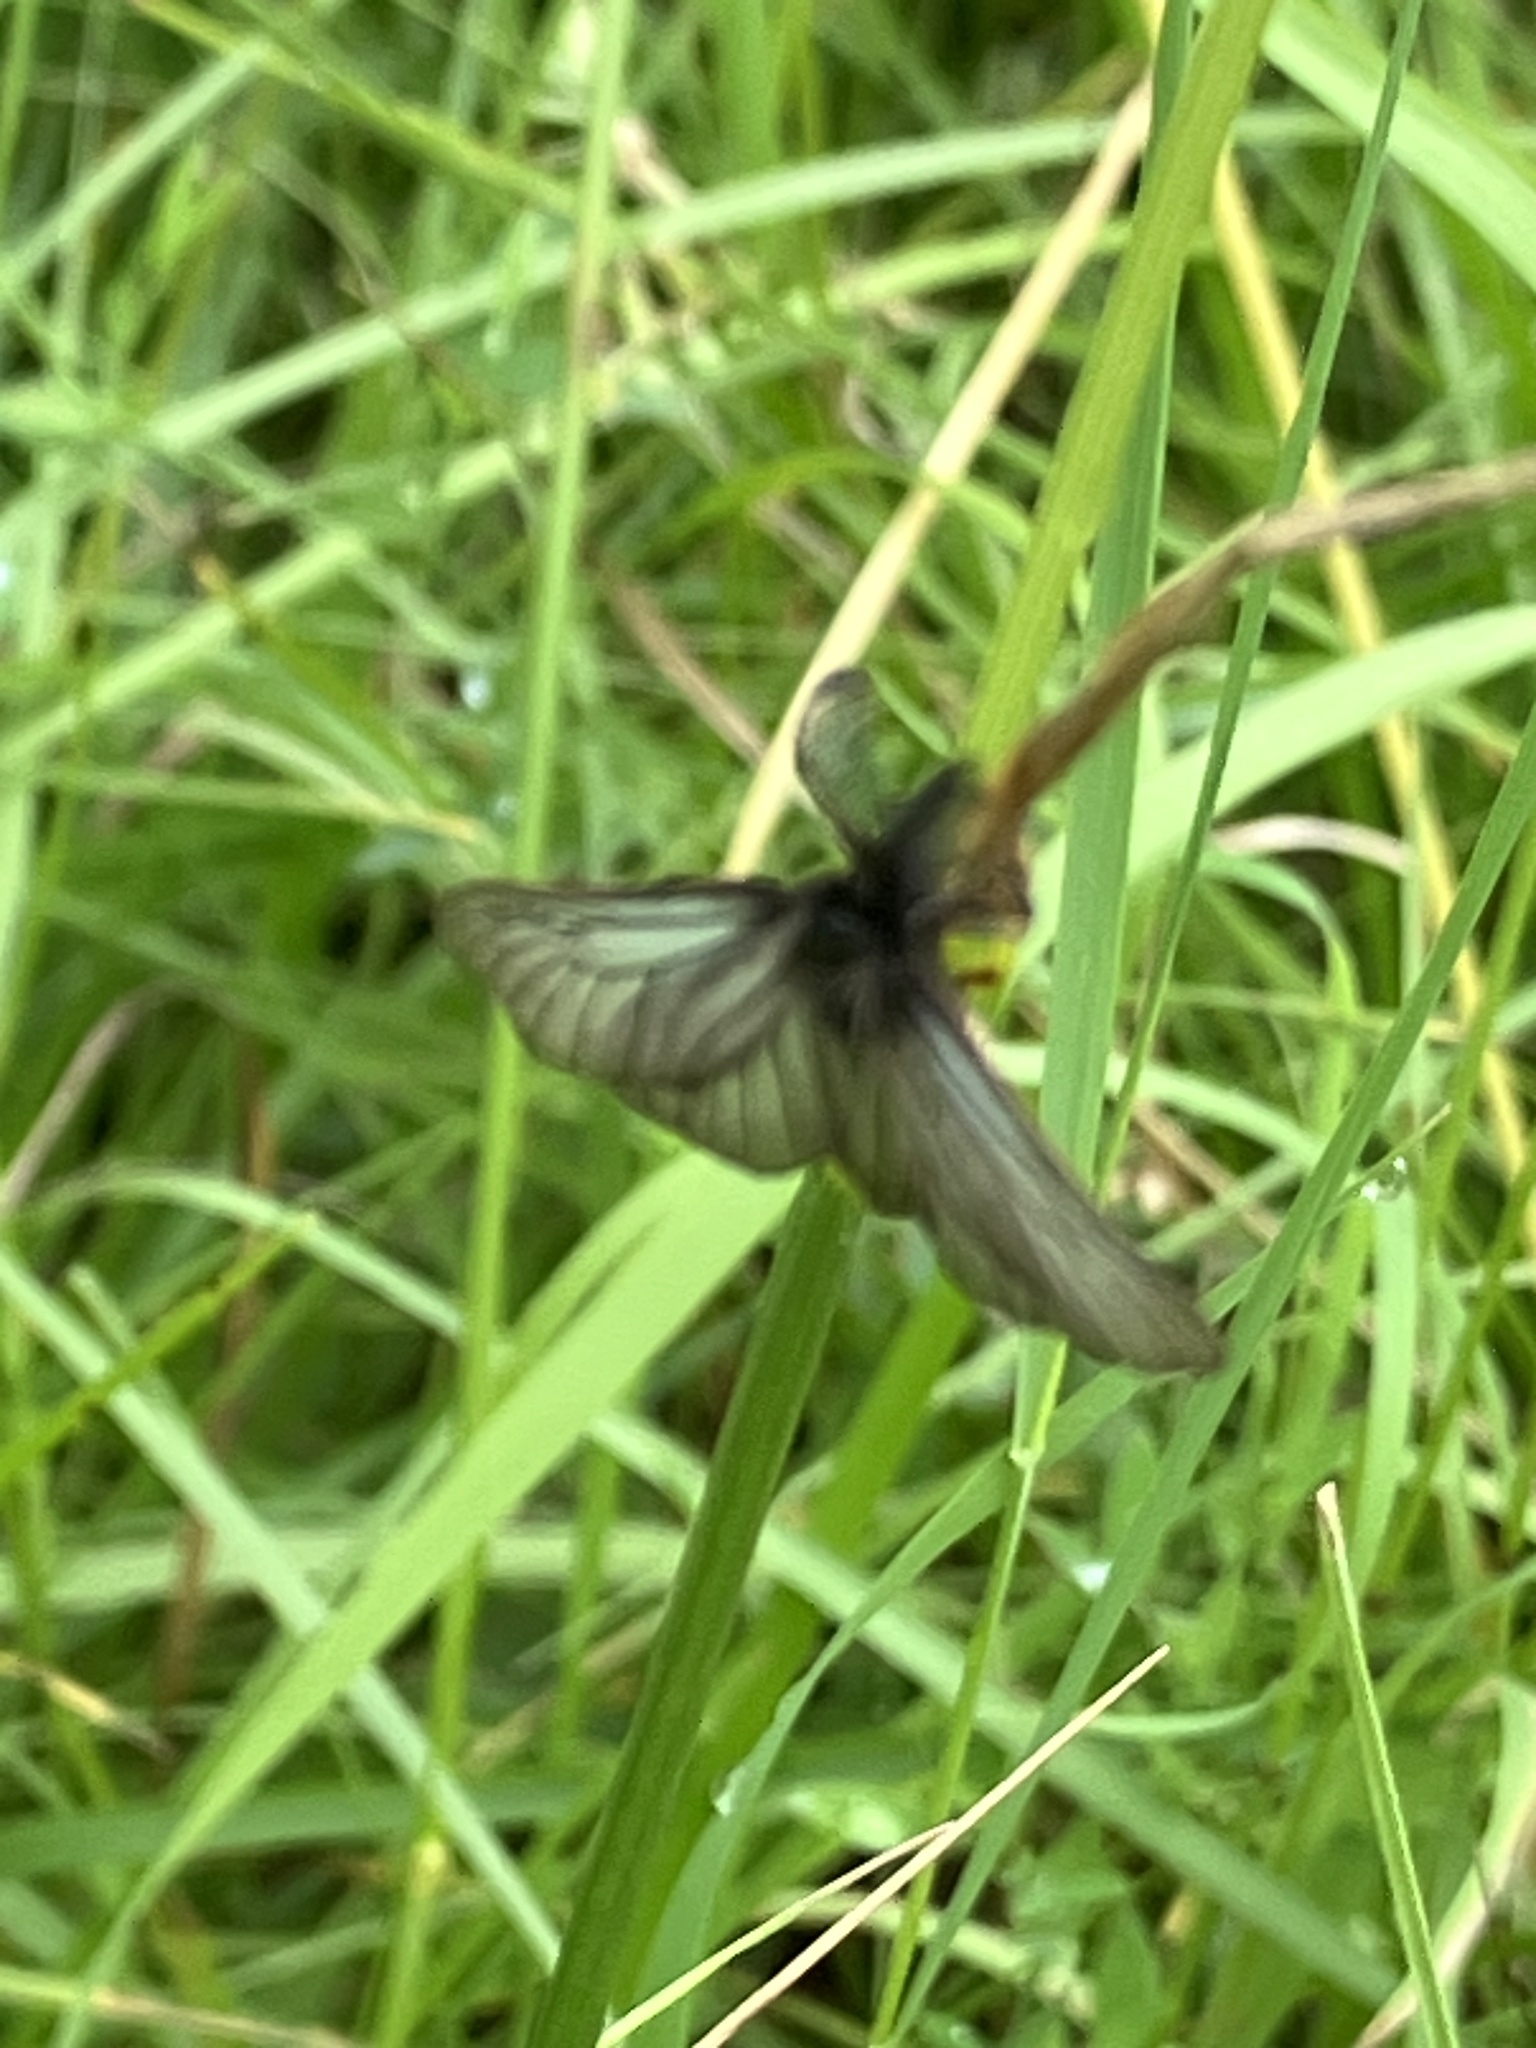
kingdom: Animalia
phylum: Arthropoda
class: Insecta
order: Lepidoptera
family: Erebidae
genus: Penthophera
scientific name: Penthophera morio
